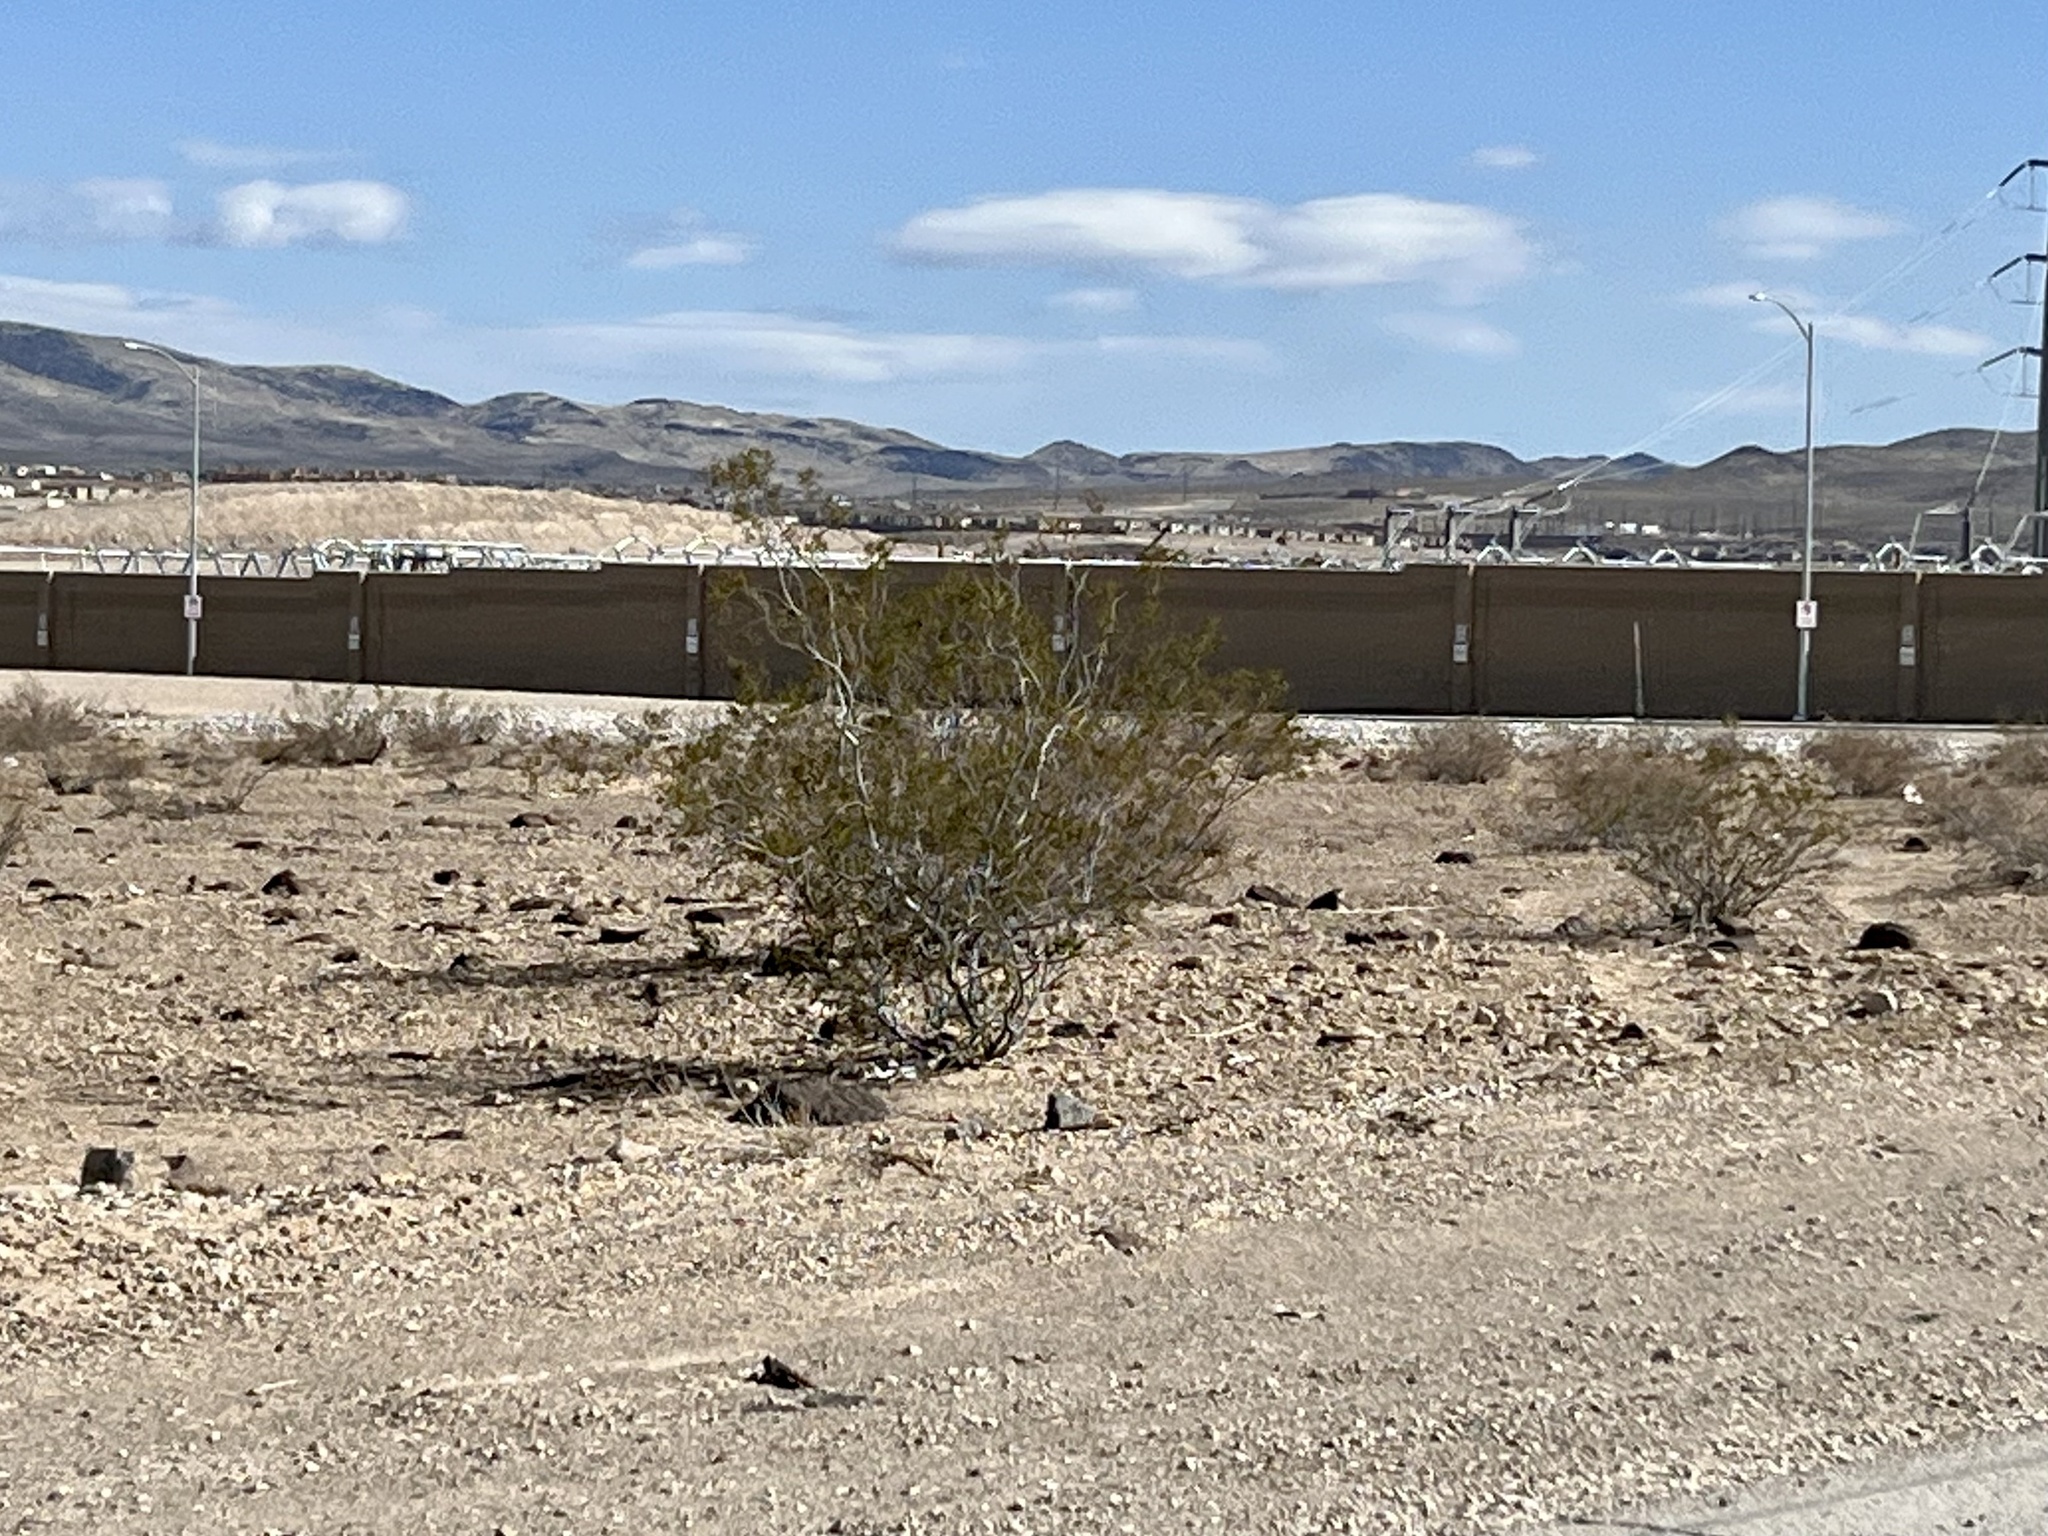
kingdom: Plantae
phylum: Tracheophyta
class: Magnoliopsida
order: Zygophyllales
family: Zygophyllaceae
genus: Larrea
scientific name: Larrea tridentata
